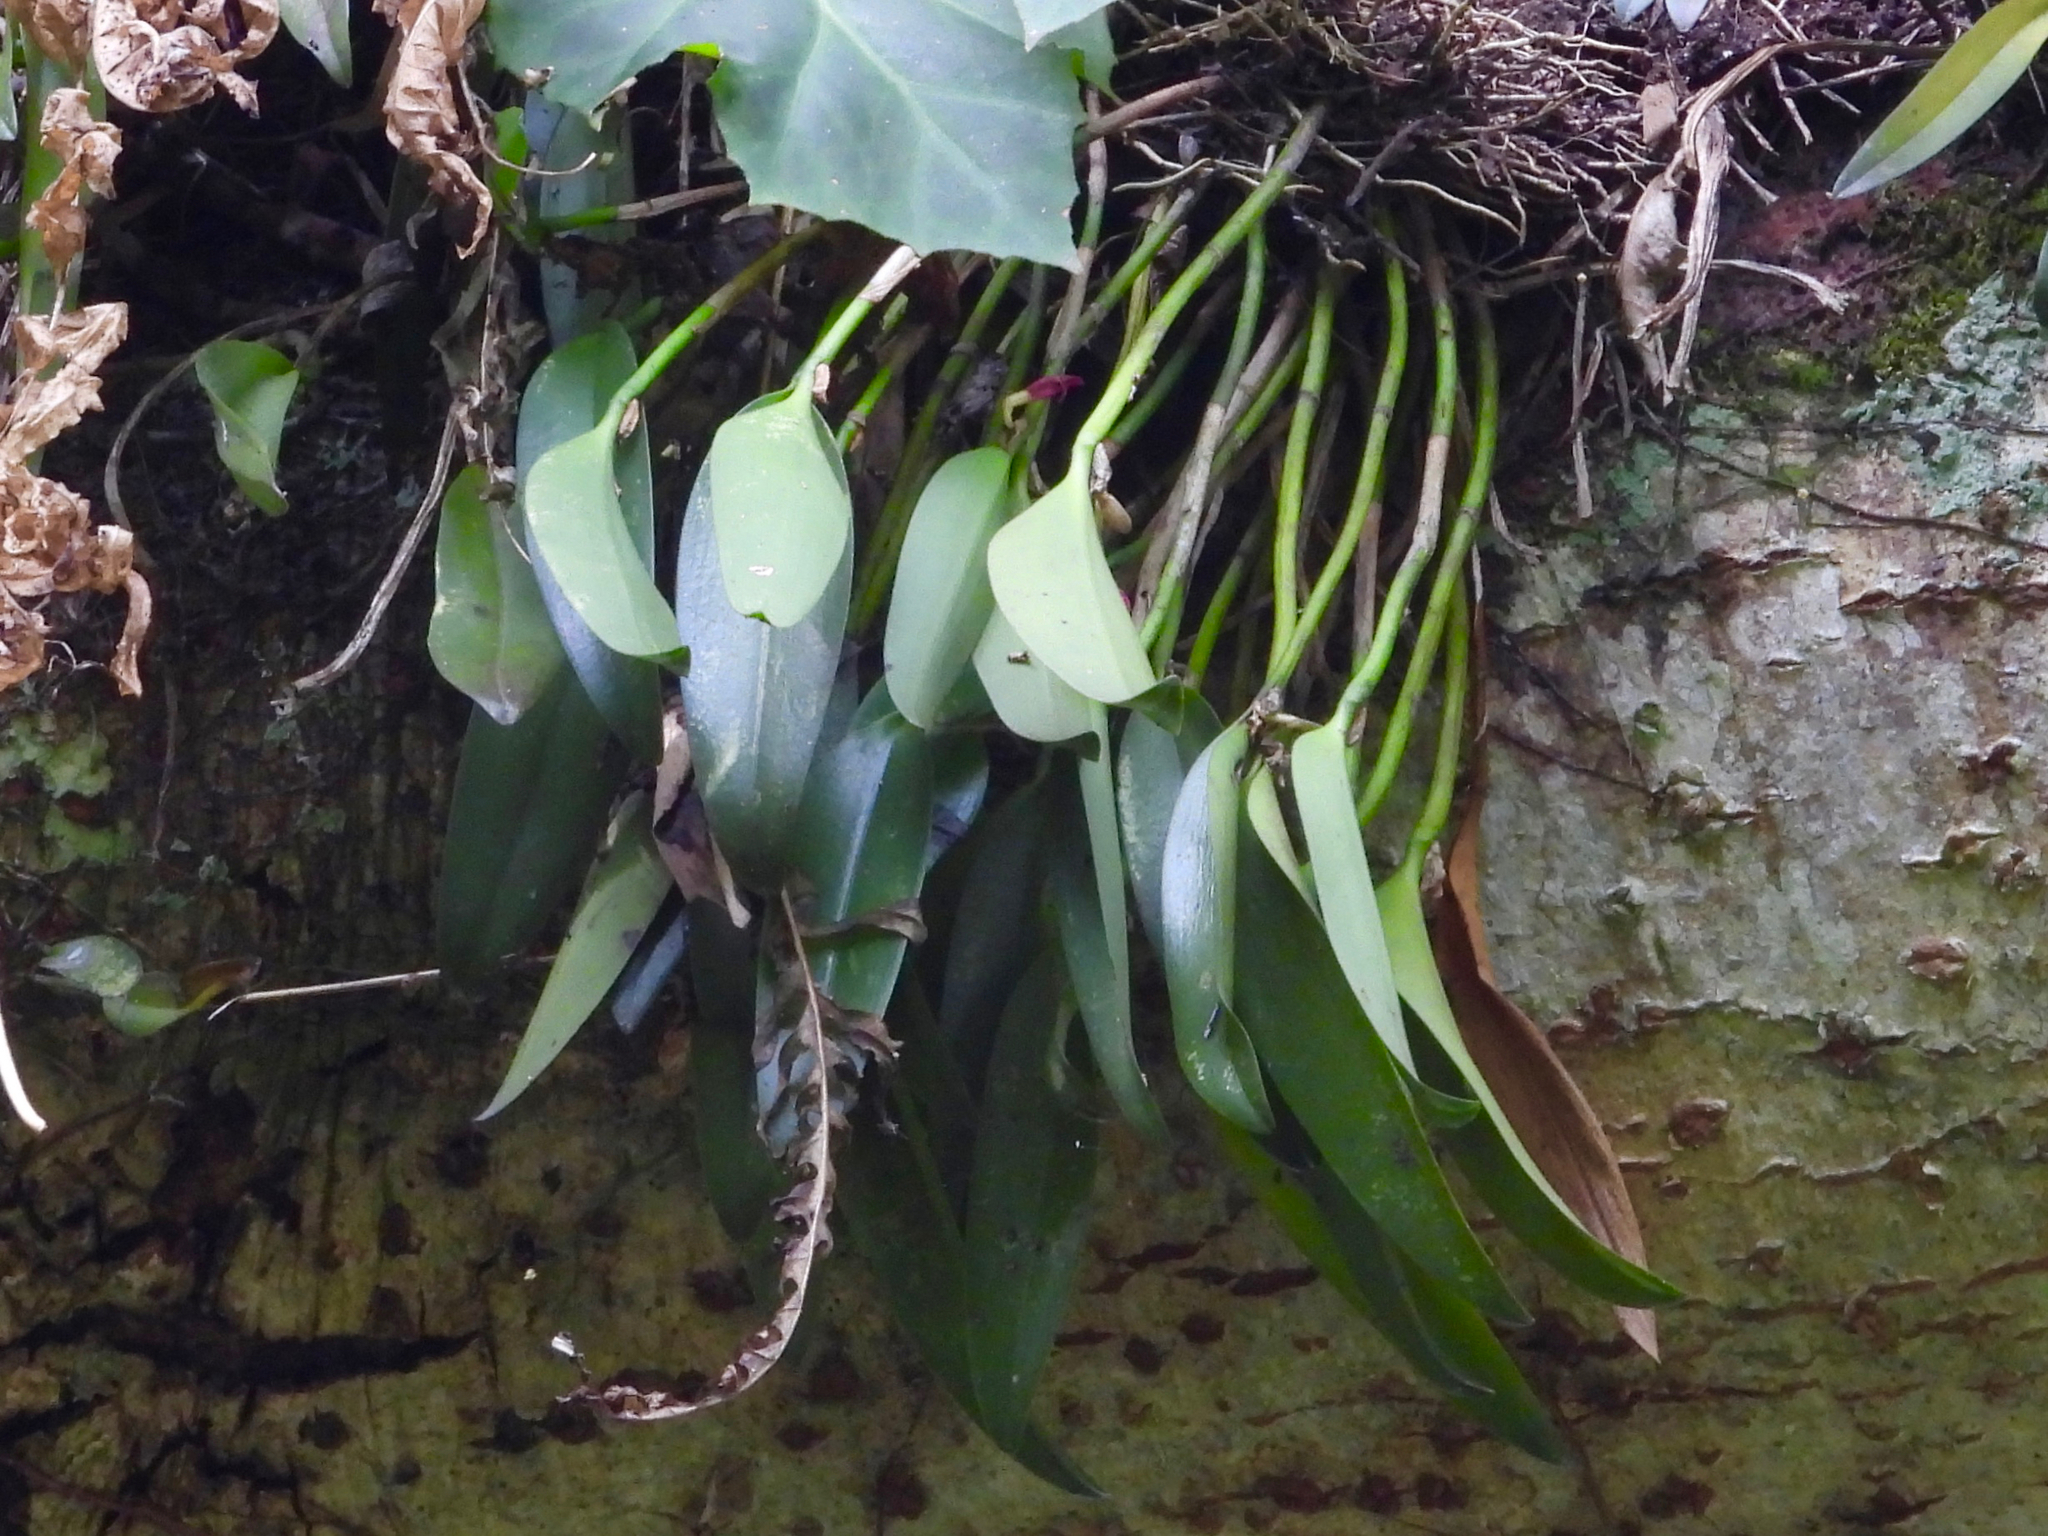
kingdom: Plantae
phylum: Tracheophyta
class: Liliopsida
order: Asparagales
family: Orchidaceae
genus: Restrepiella
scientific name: Restrepiella ophiocephala
